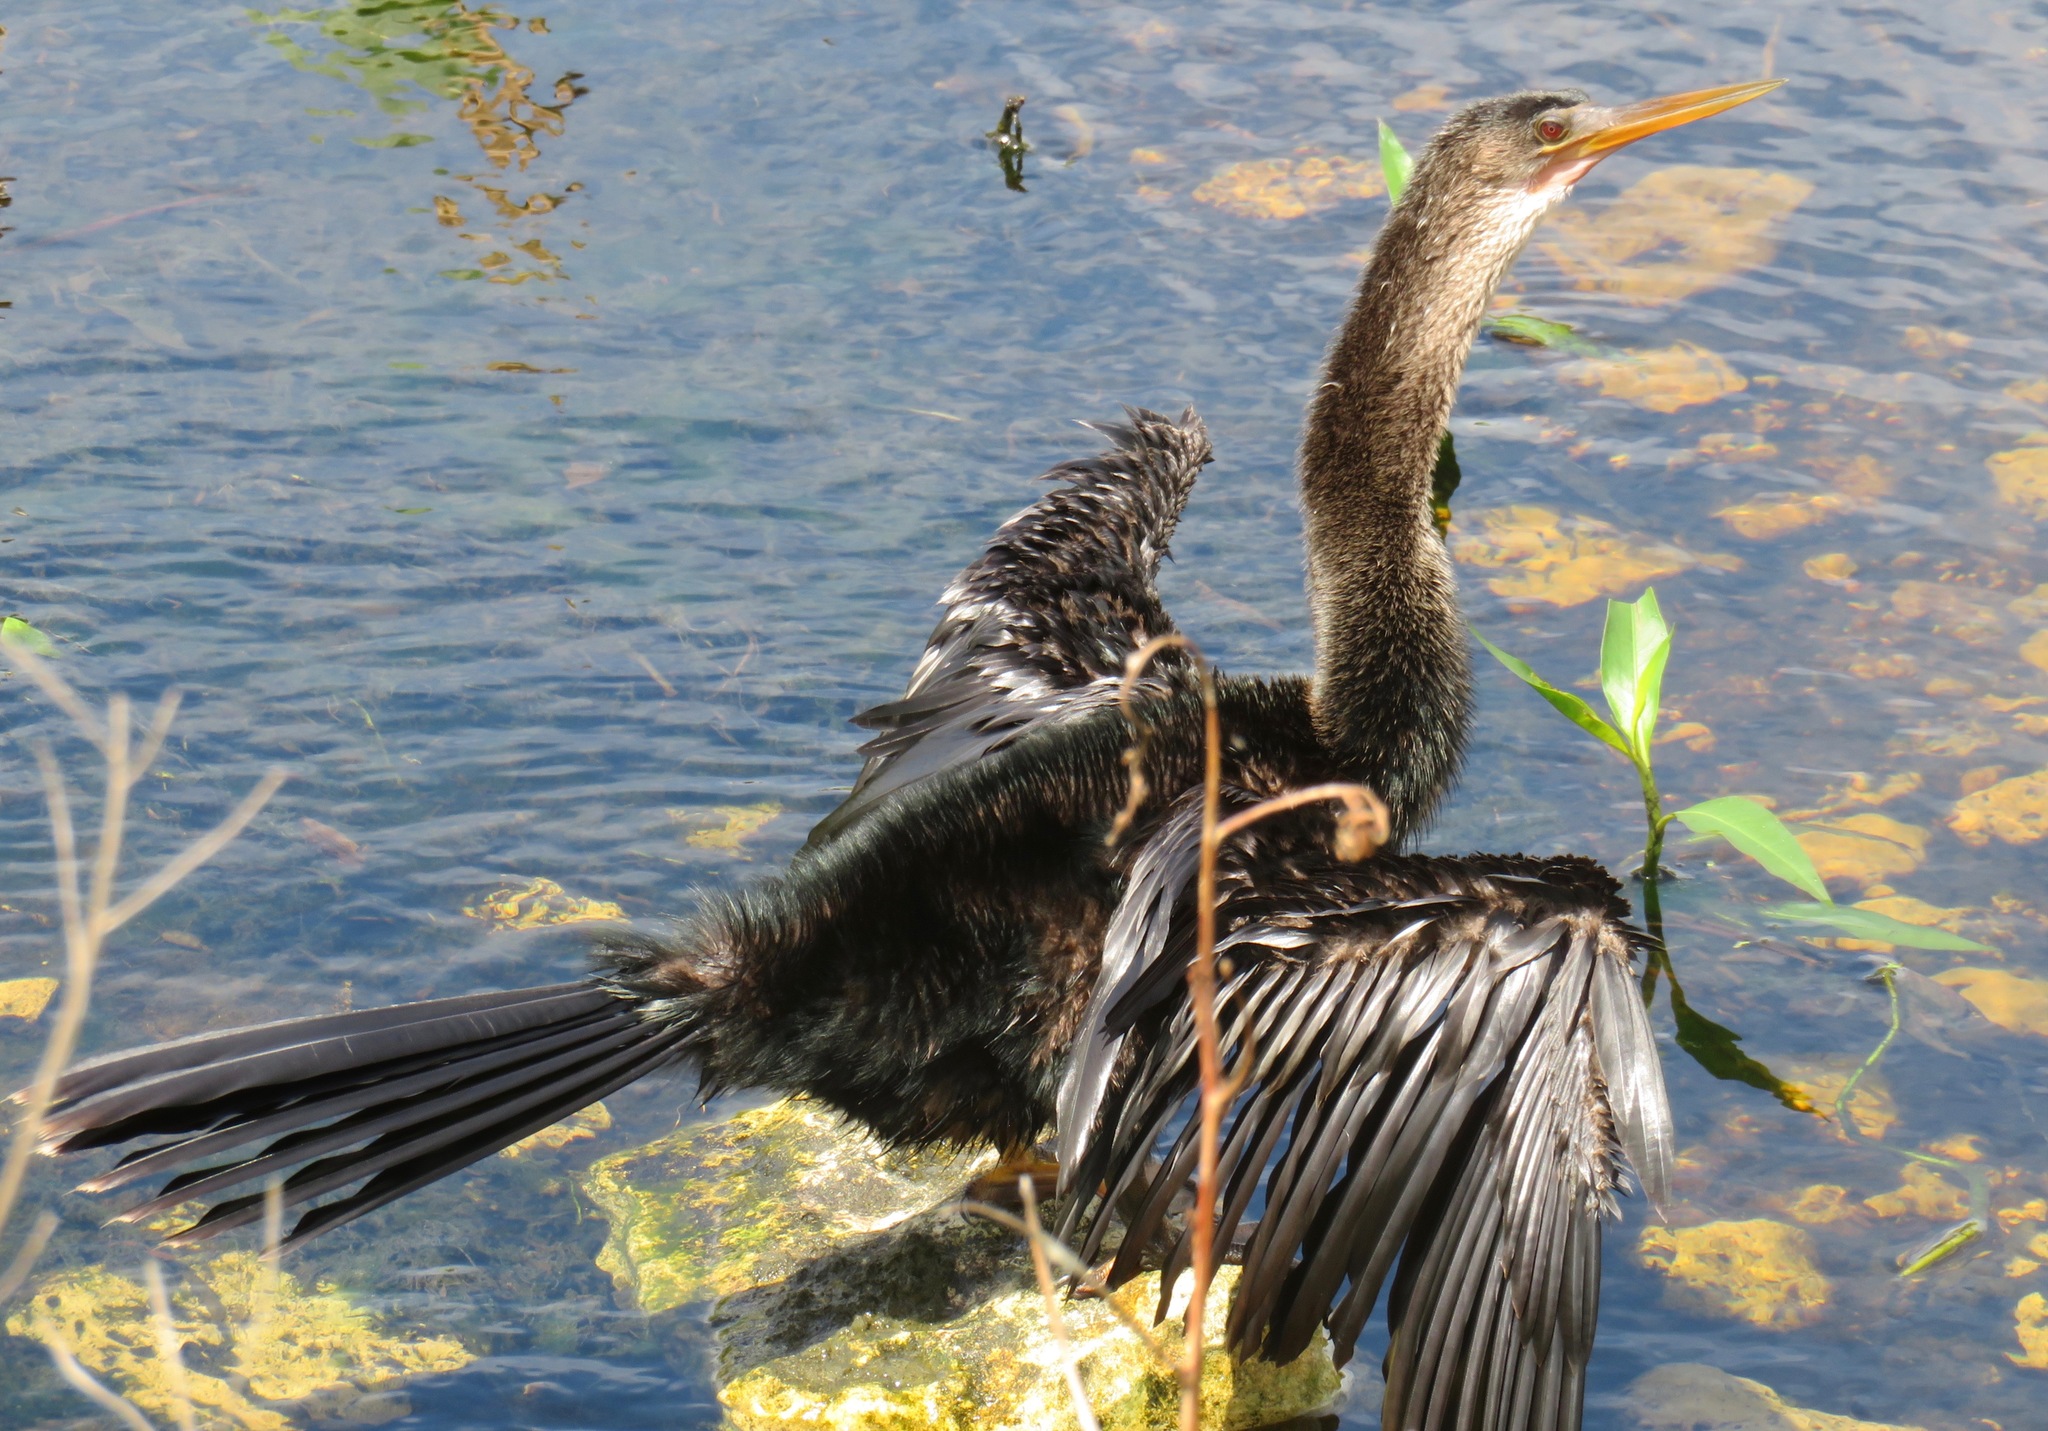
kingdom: Animalia
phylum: Chordata
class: Aves
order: Suliformes
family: Anhingidae
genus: Anhinga
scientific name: Anhinga anhinga
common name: Anhinga
